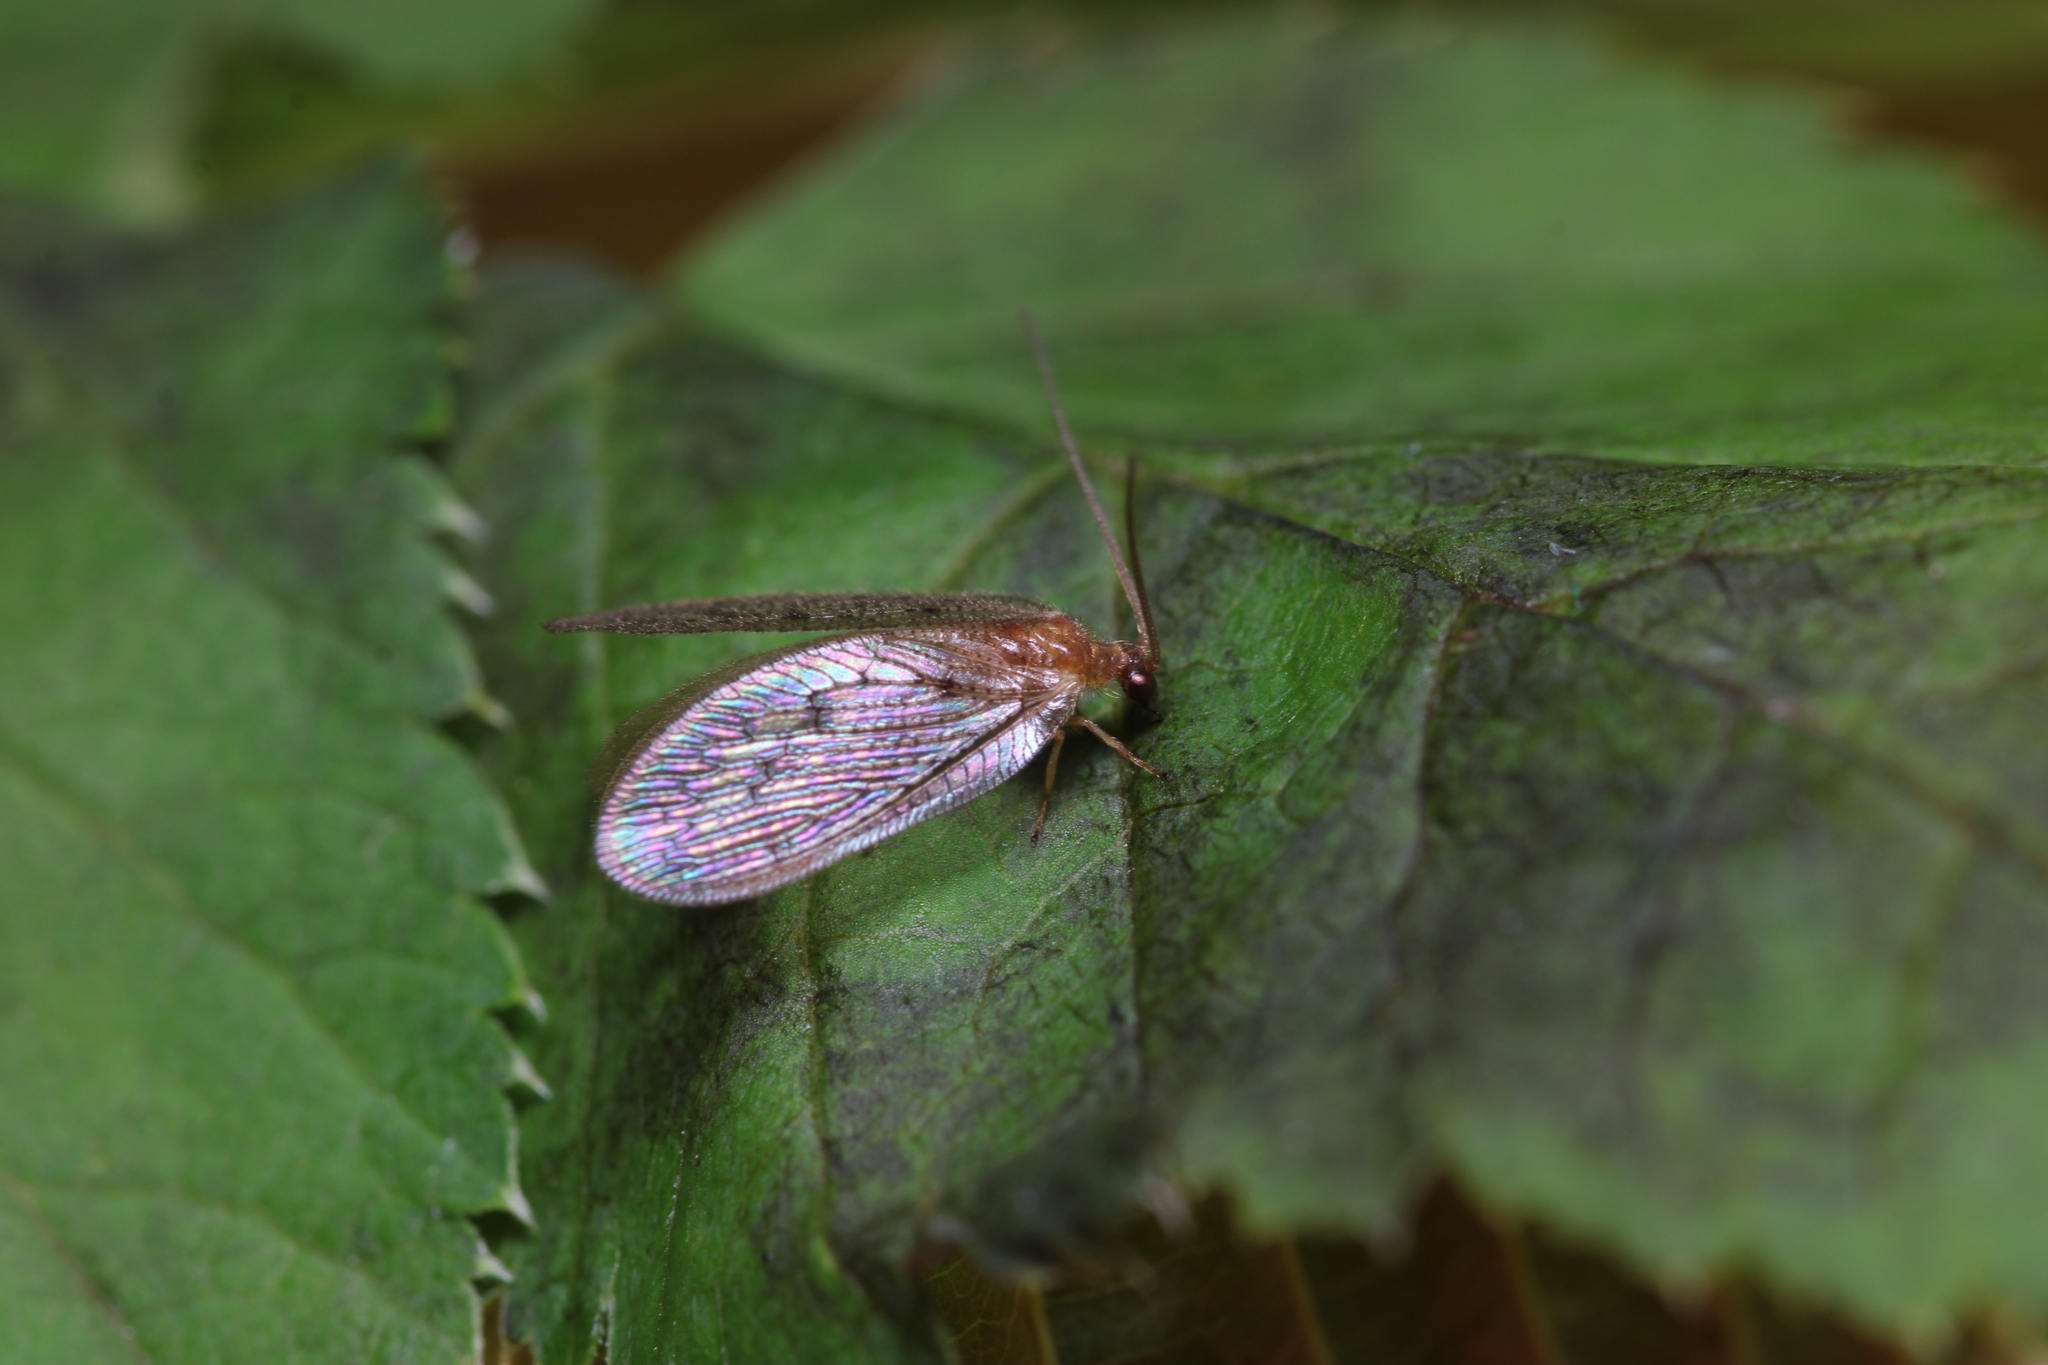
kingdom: Animalia
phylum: Arthropoda
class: Insecta
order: Neuroptera
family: Hemerobiidae
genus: Hemerobius
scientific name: Hemerobius stigma
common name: Brown pine lacewing
